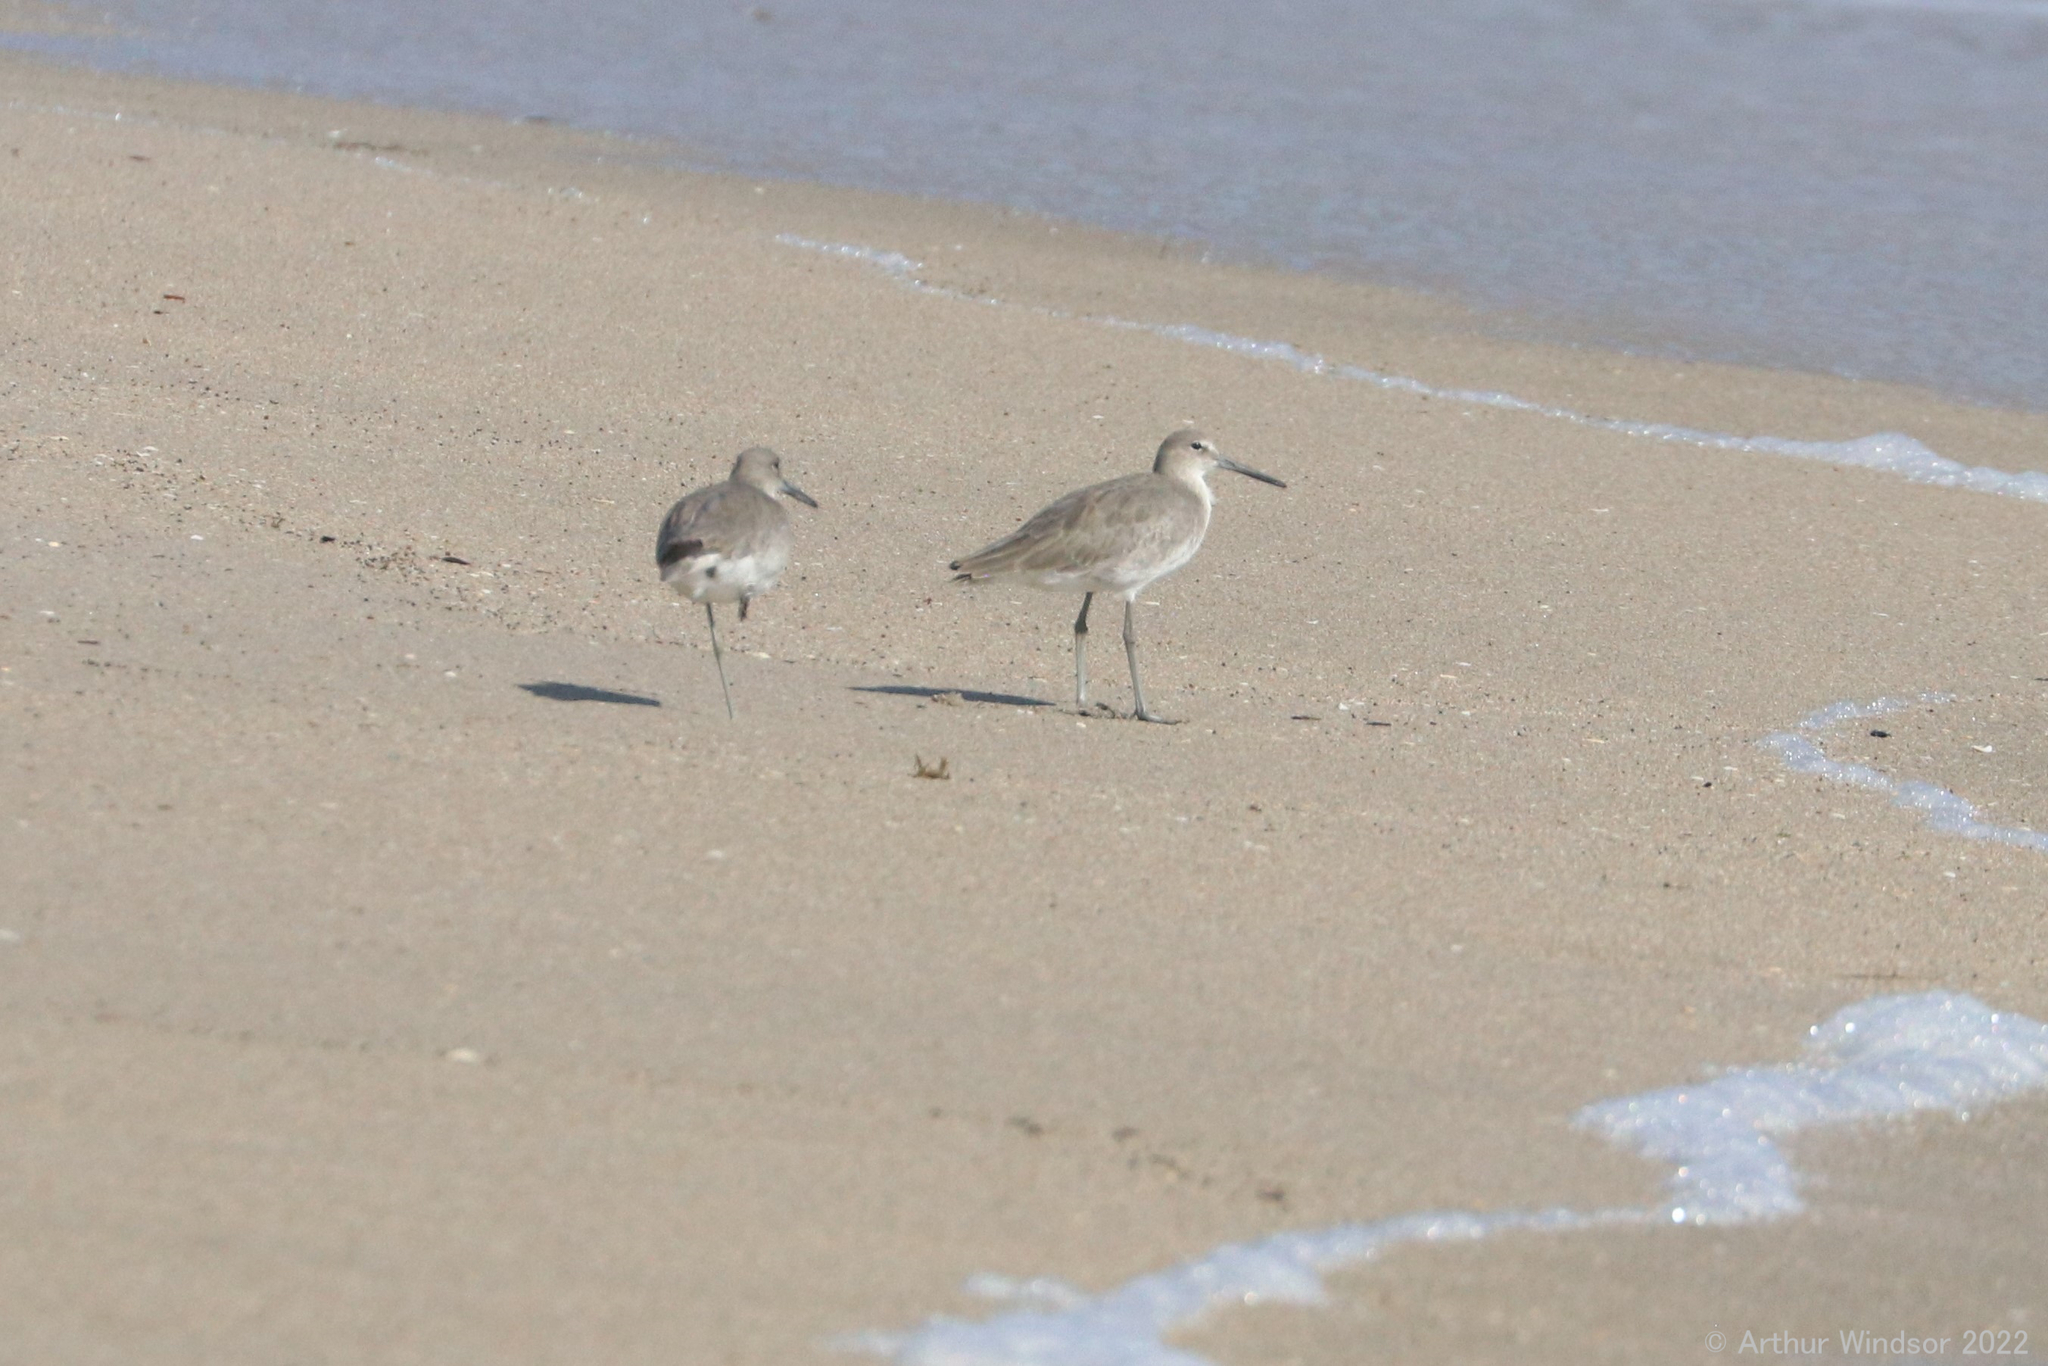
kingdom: Animalia
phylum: Chordata
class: Aves
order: Charadriiformes
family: Scolopacidae
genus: Tringa
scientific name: Tringa semipalmata
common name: Willet
